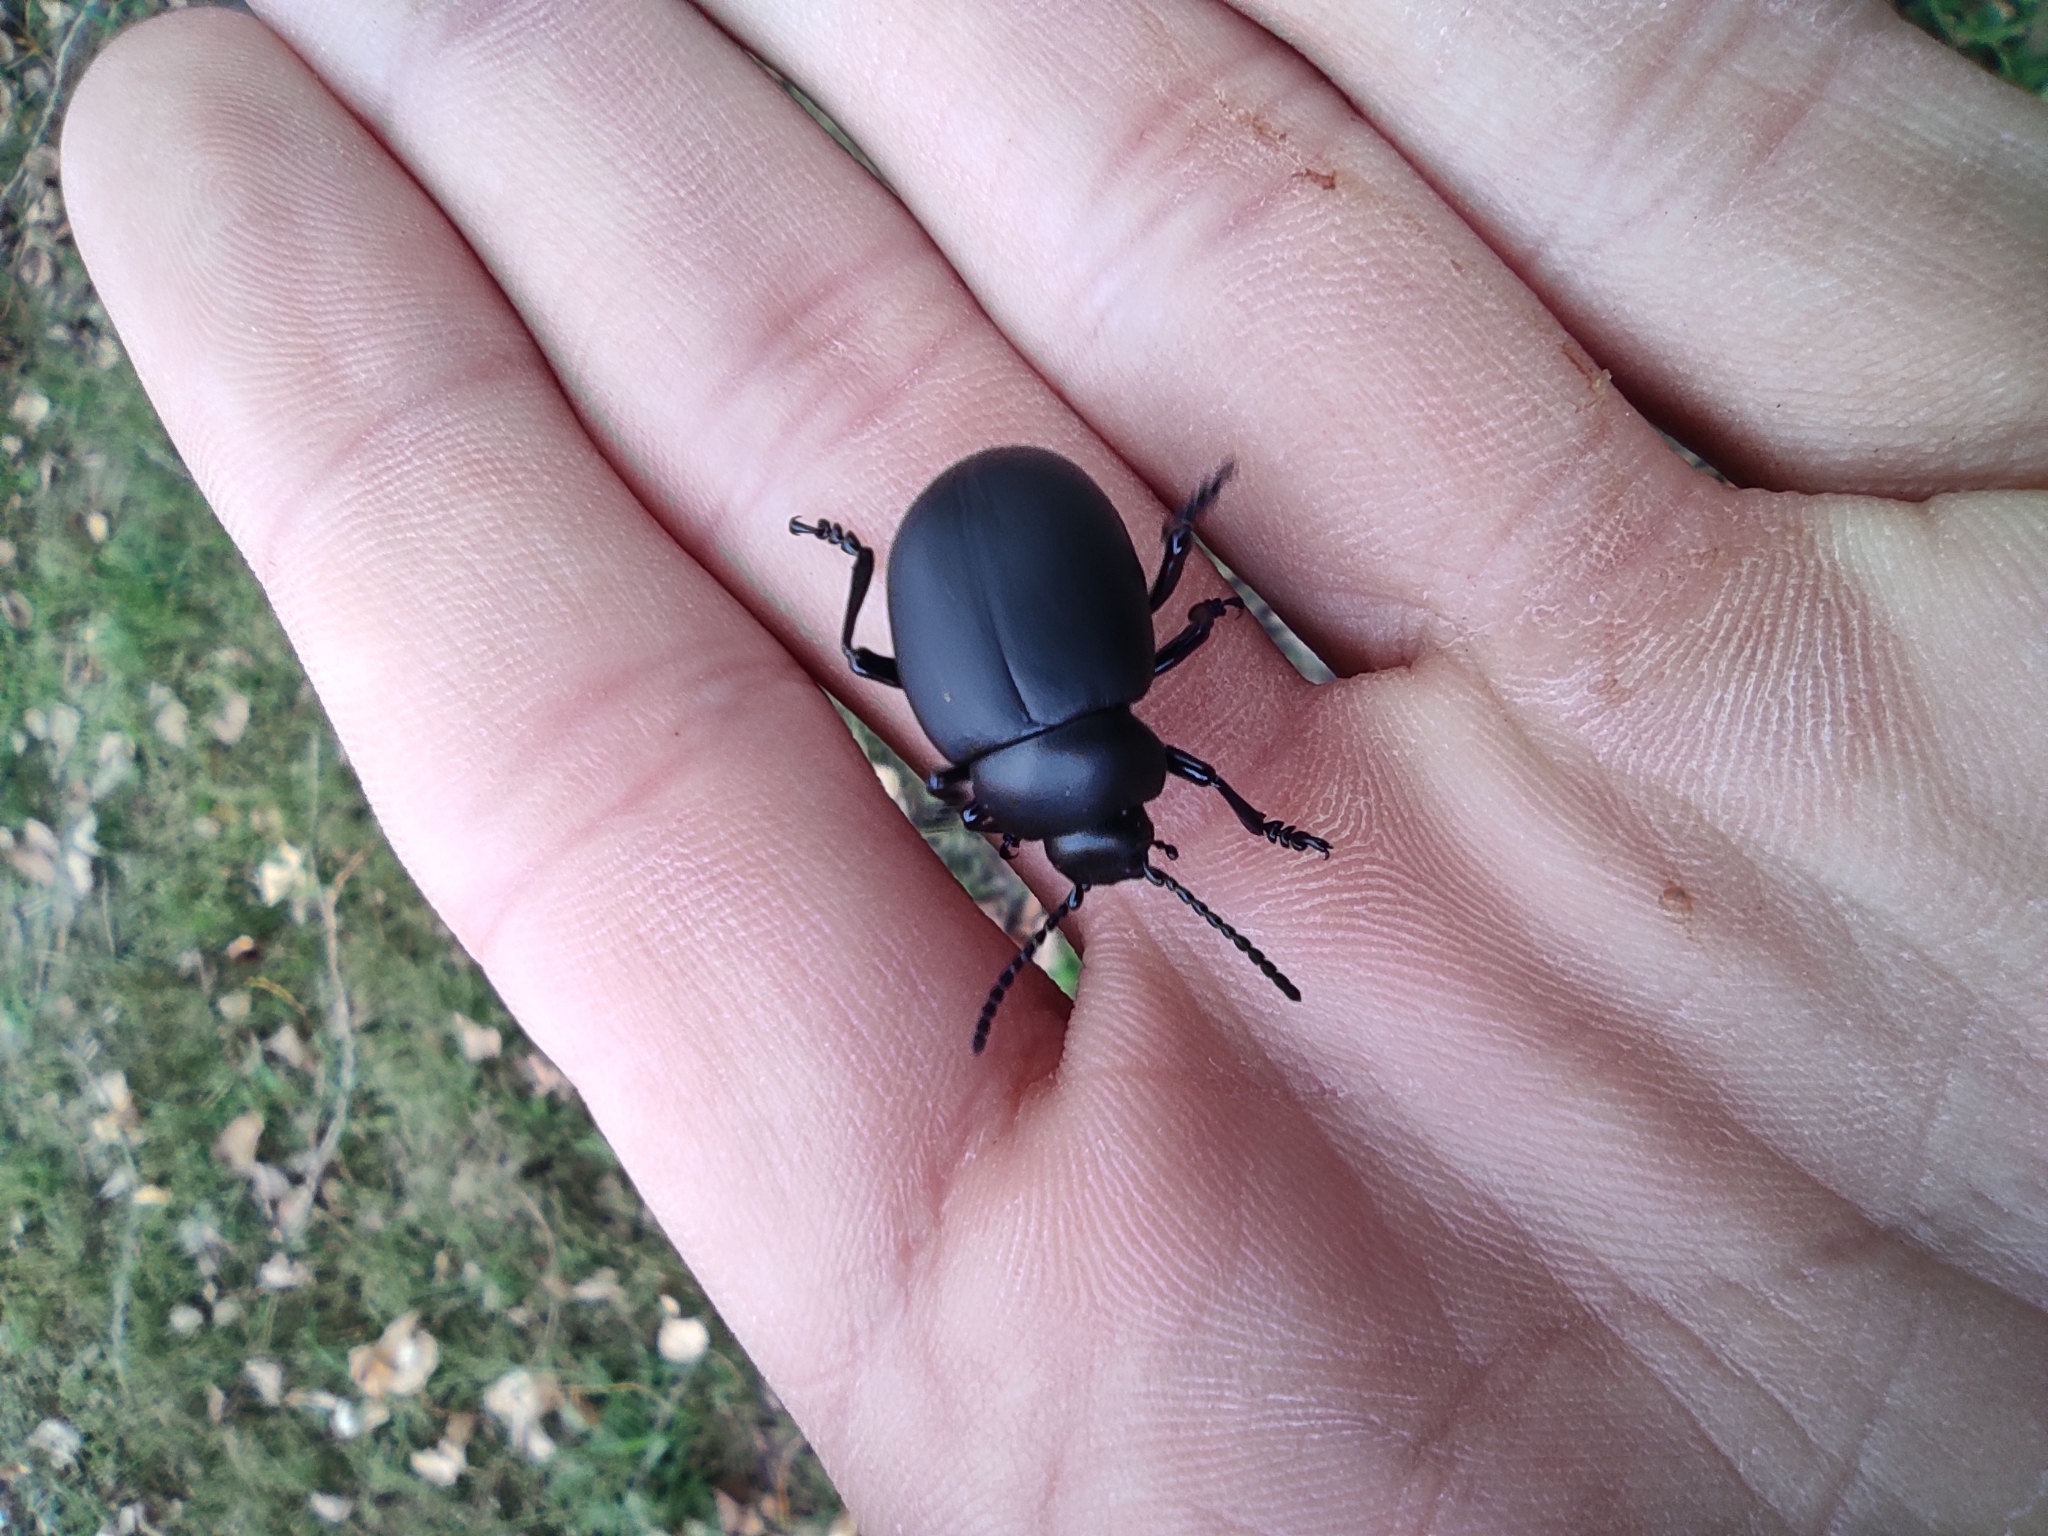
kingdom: Animalia
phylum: Arthropoda
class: Insecta
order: Coleoptera
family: Chrysomelidae
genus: Timarcha
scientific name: Timarcha tenebricosa
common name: Bloody-nosed beetle
